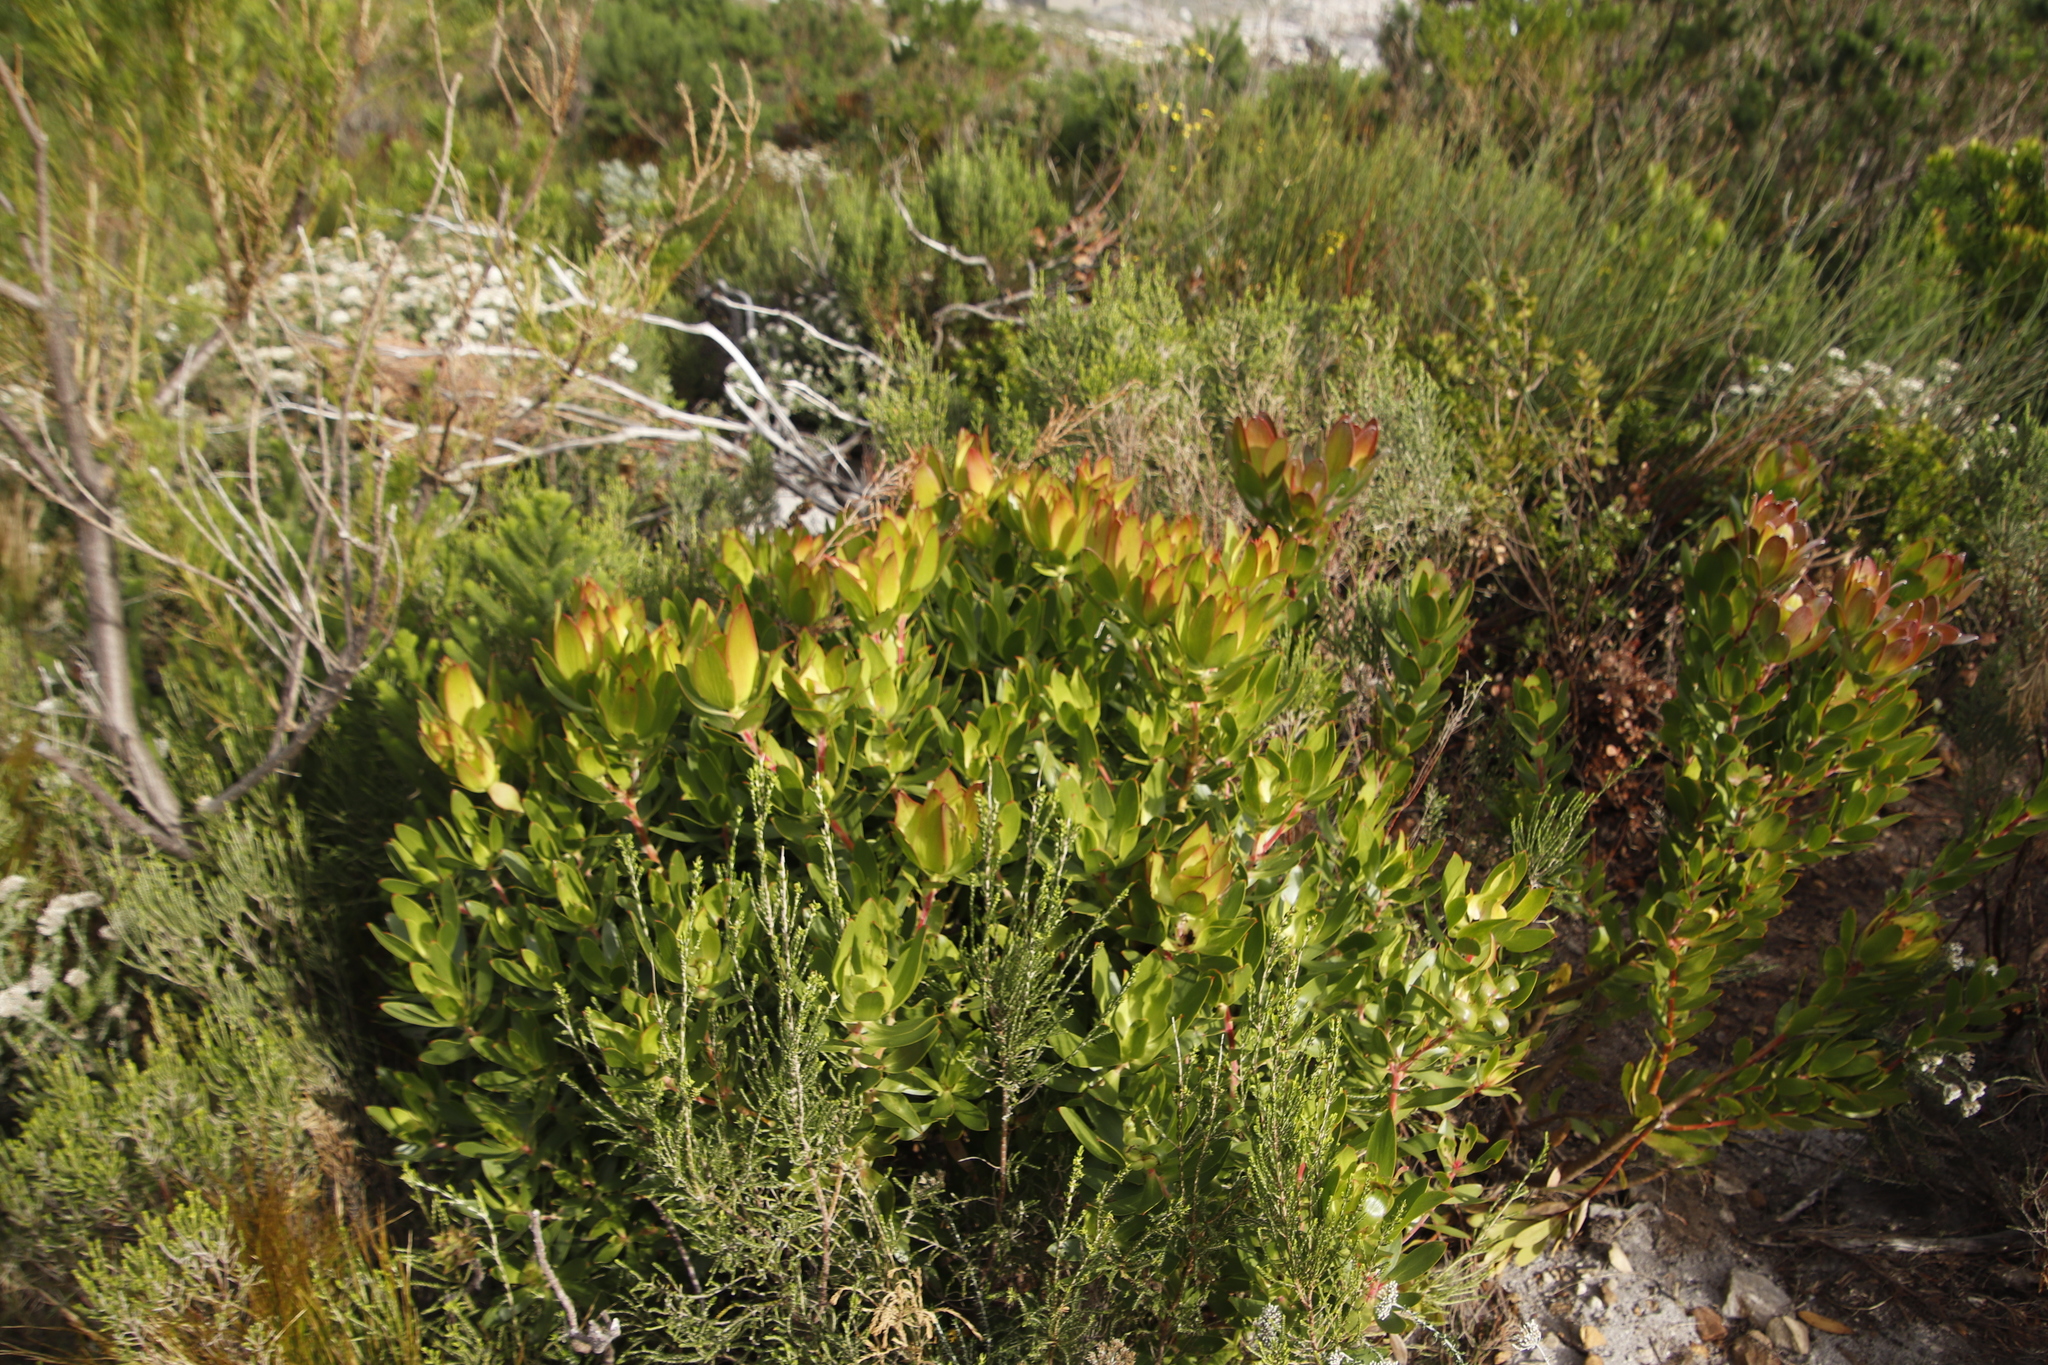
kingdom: Plantae
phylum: Tracheophyta
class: Magnoliopsida
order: Proteales
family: Proteaceae
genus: Leucadendron
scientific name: Leucadendron gandogeri
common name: Broad-leaf conebush
